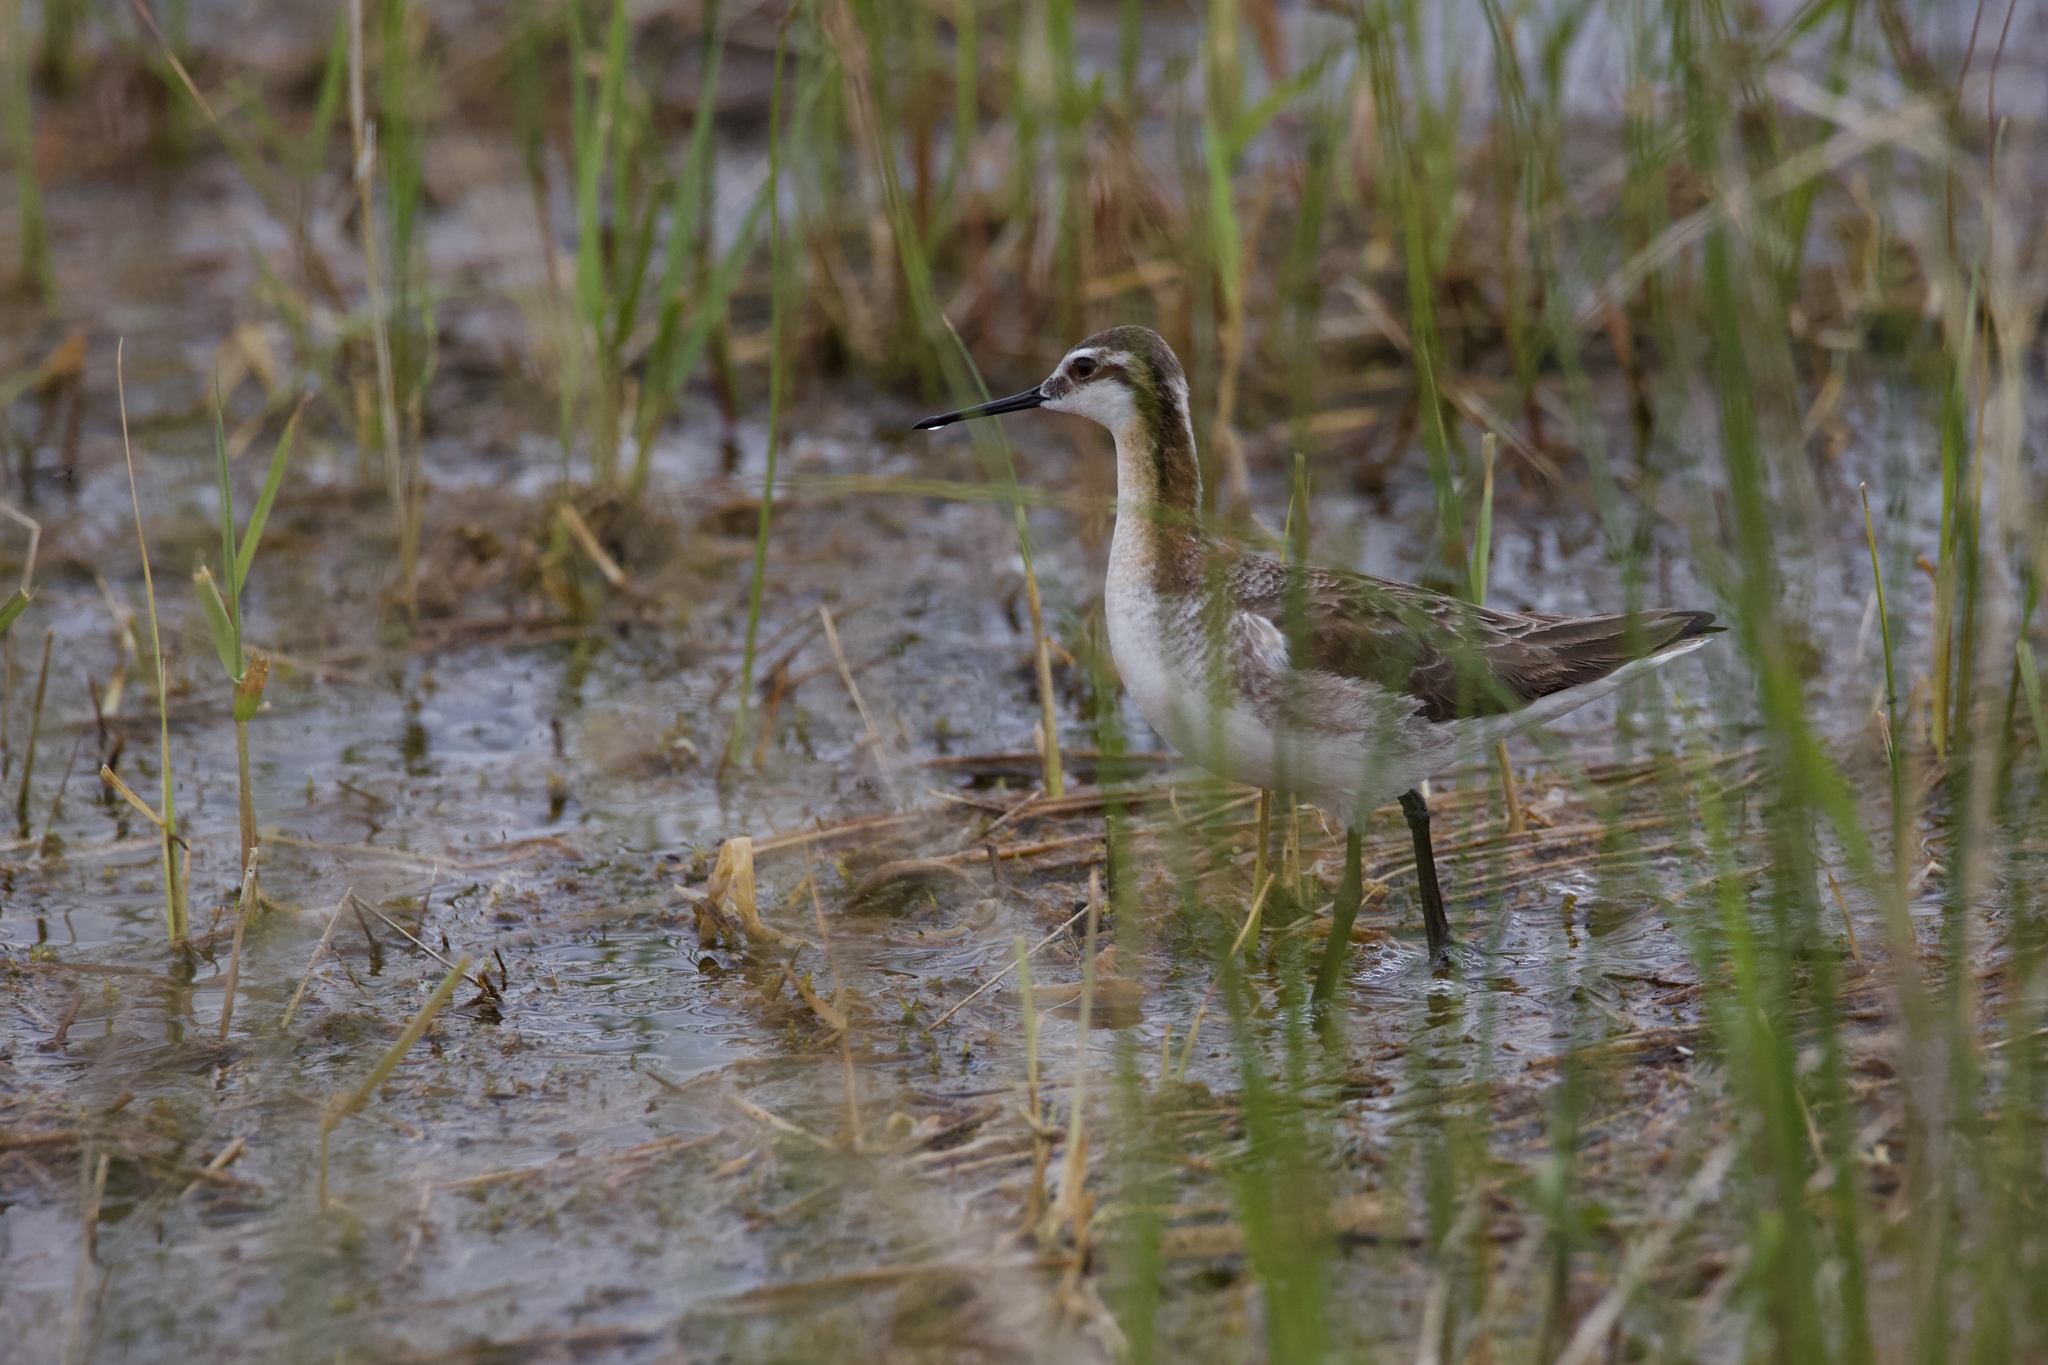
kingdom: Animalia
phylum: Chordata
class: Aves
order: Charadriiformes
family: Scolopacidae
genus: Phalaropus
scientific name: Phalaropus tricolor
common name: Wilson's phalarope
